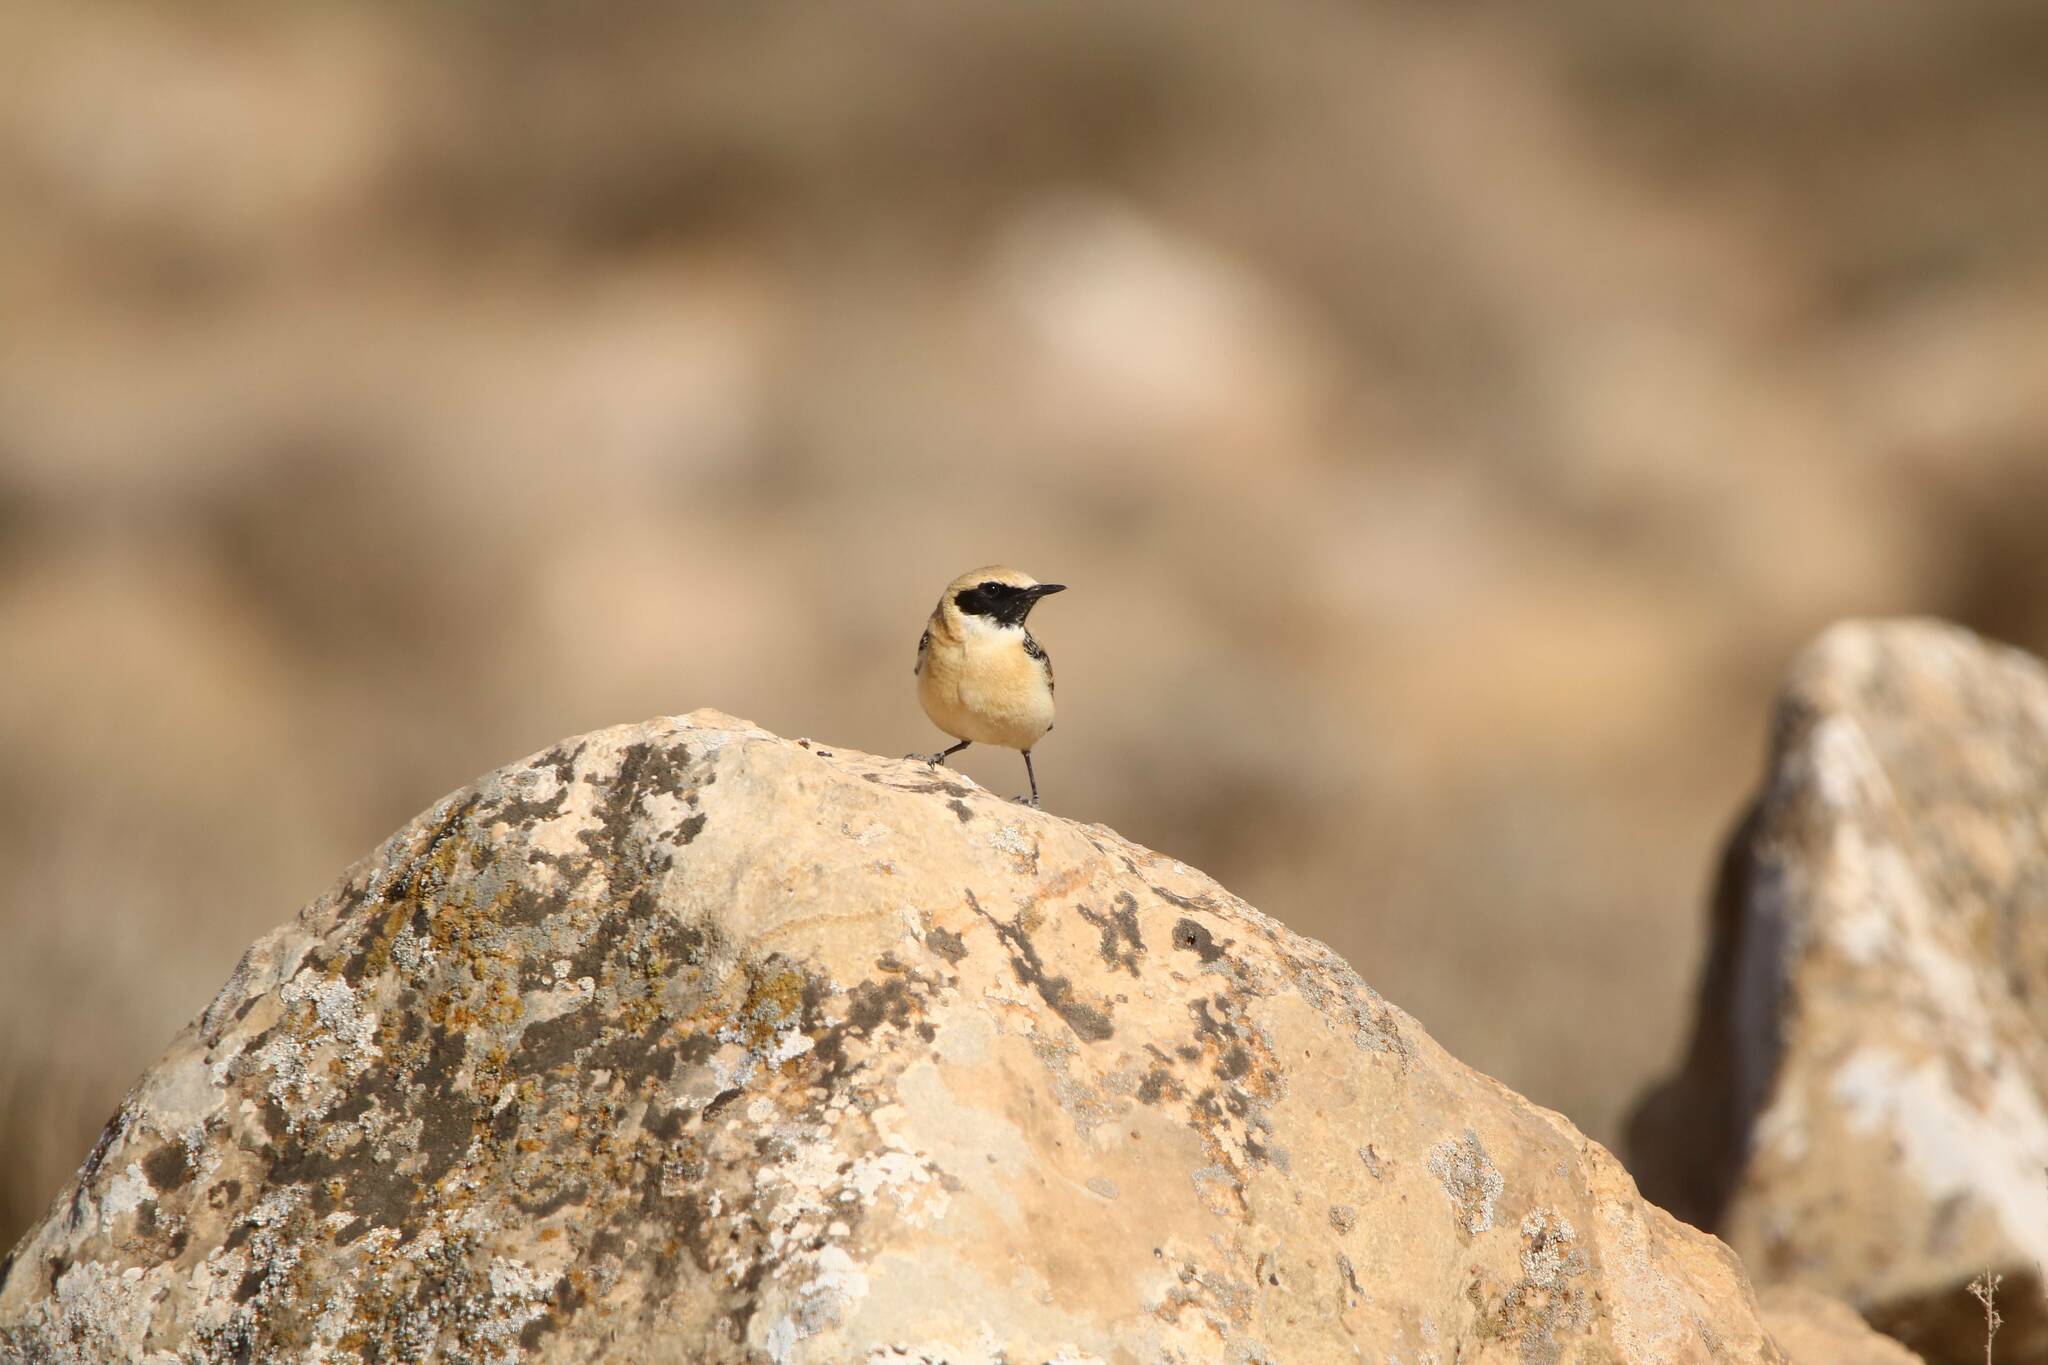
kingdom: Animalia
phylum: Chordata
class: Aves
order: Passeriformes
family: Muscicapidae
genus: Oenanthe
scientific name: Oenanthe hispanica
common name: Black-eared wheatear
